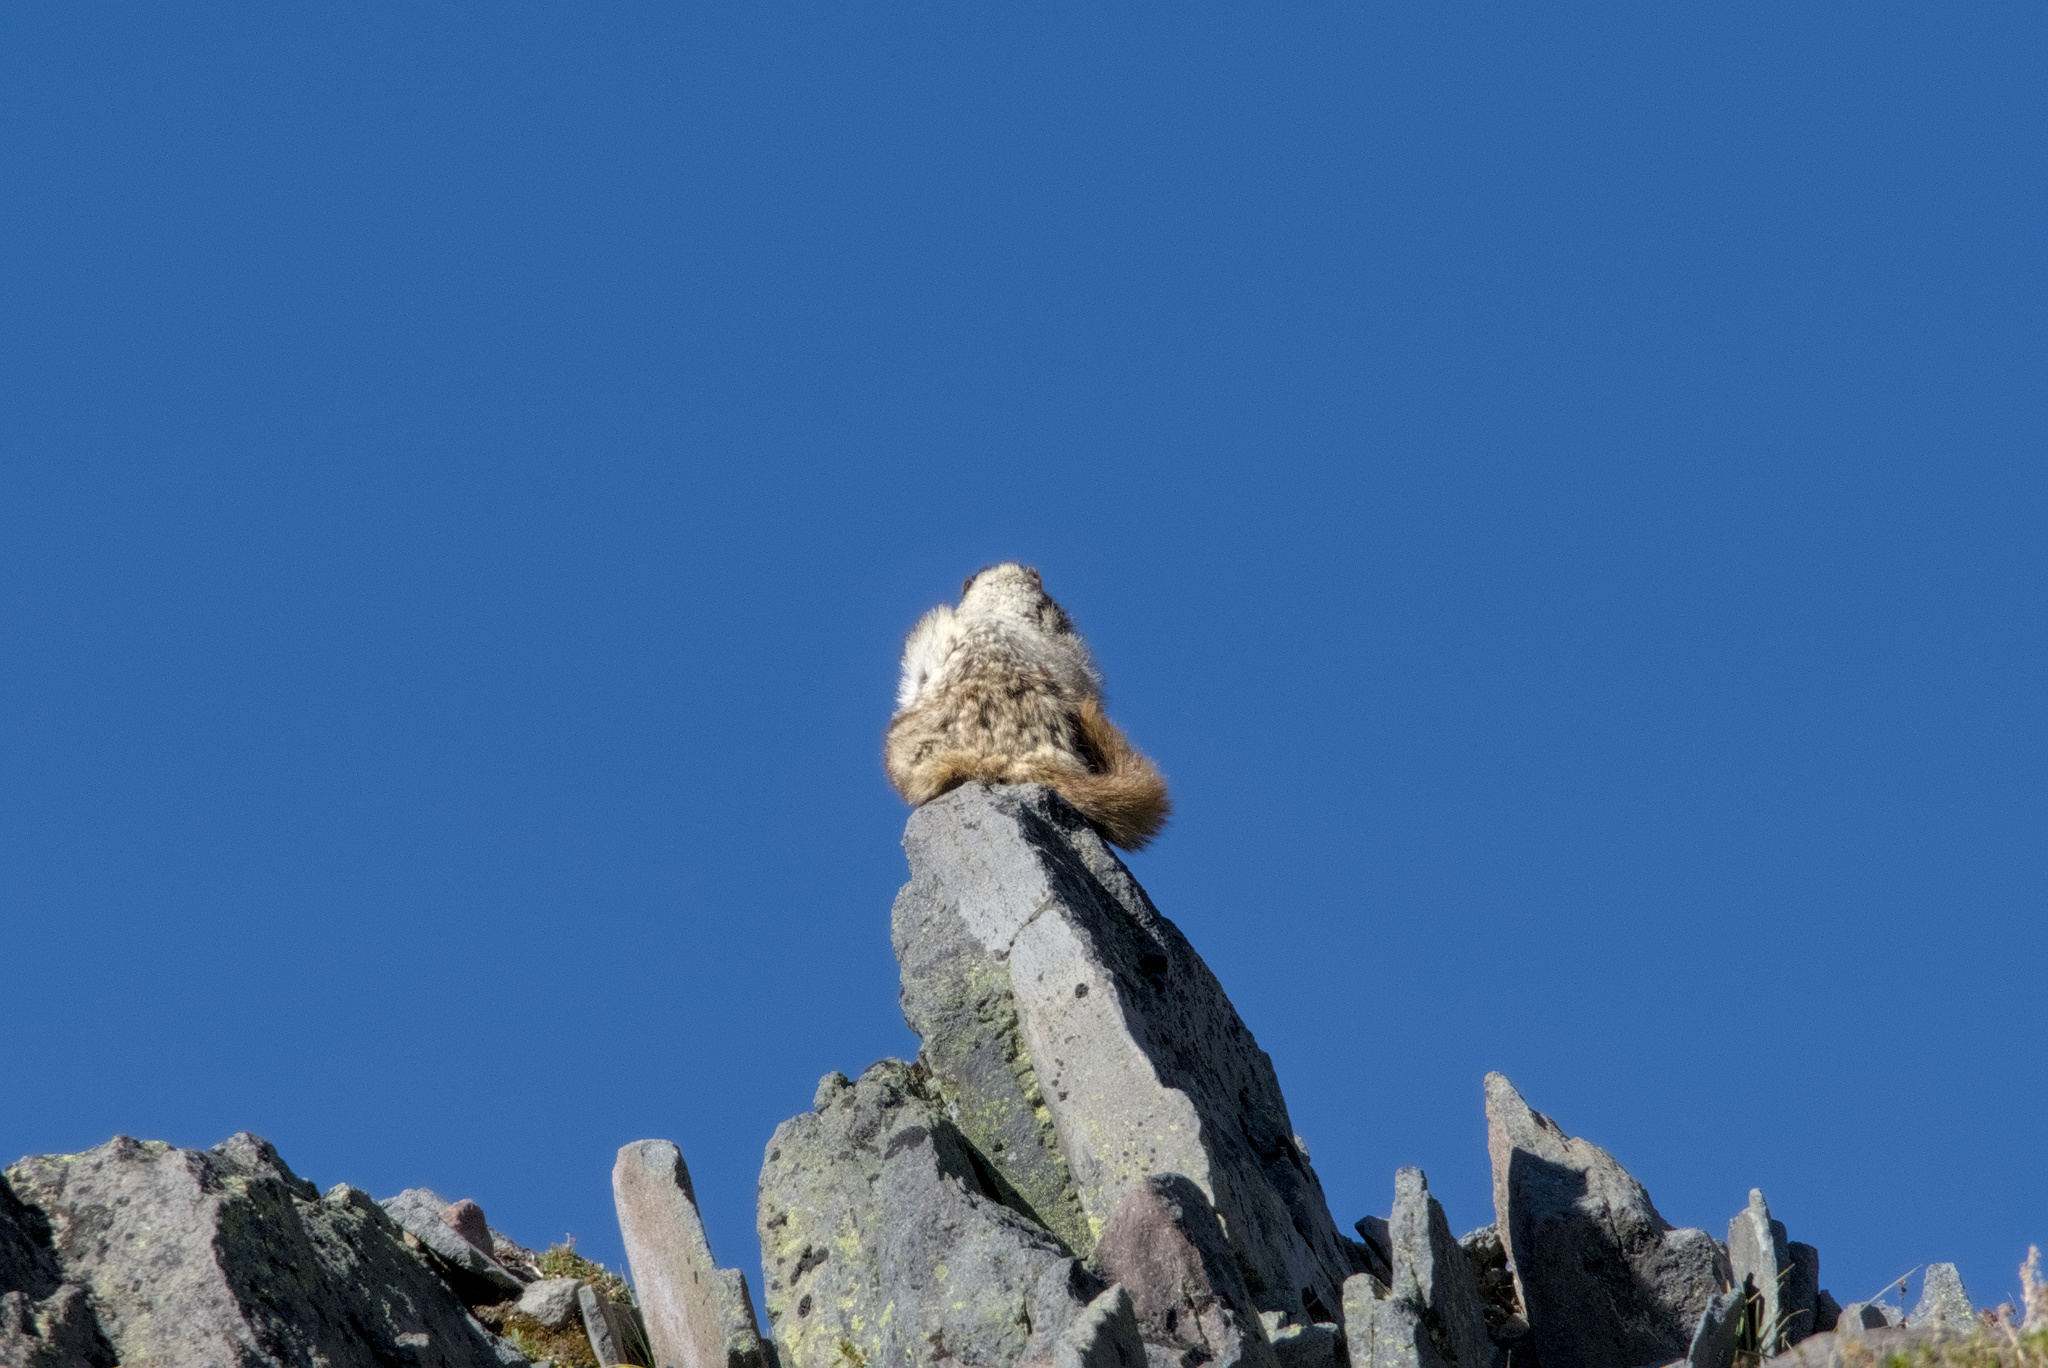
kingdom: Animalia
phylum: Chordata
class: Mammalia
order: Rodentia
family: Sciuridae
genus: Marmota
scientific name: Marmota caligata
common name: Hoary marmot
